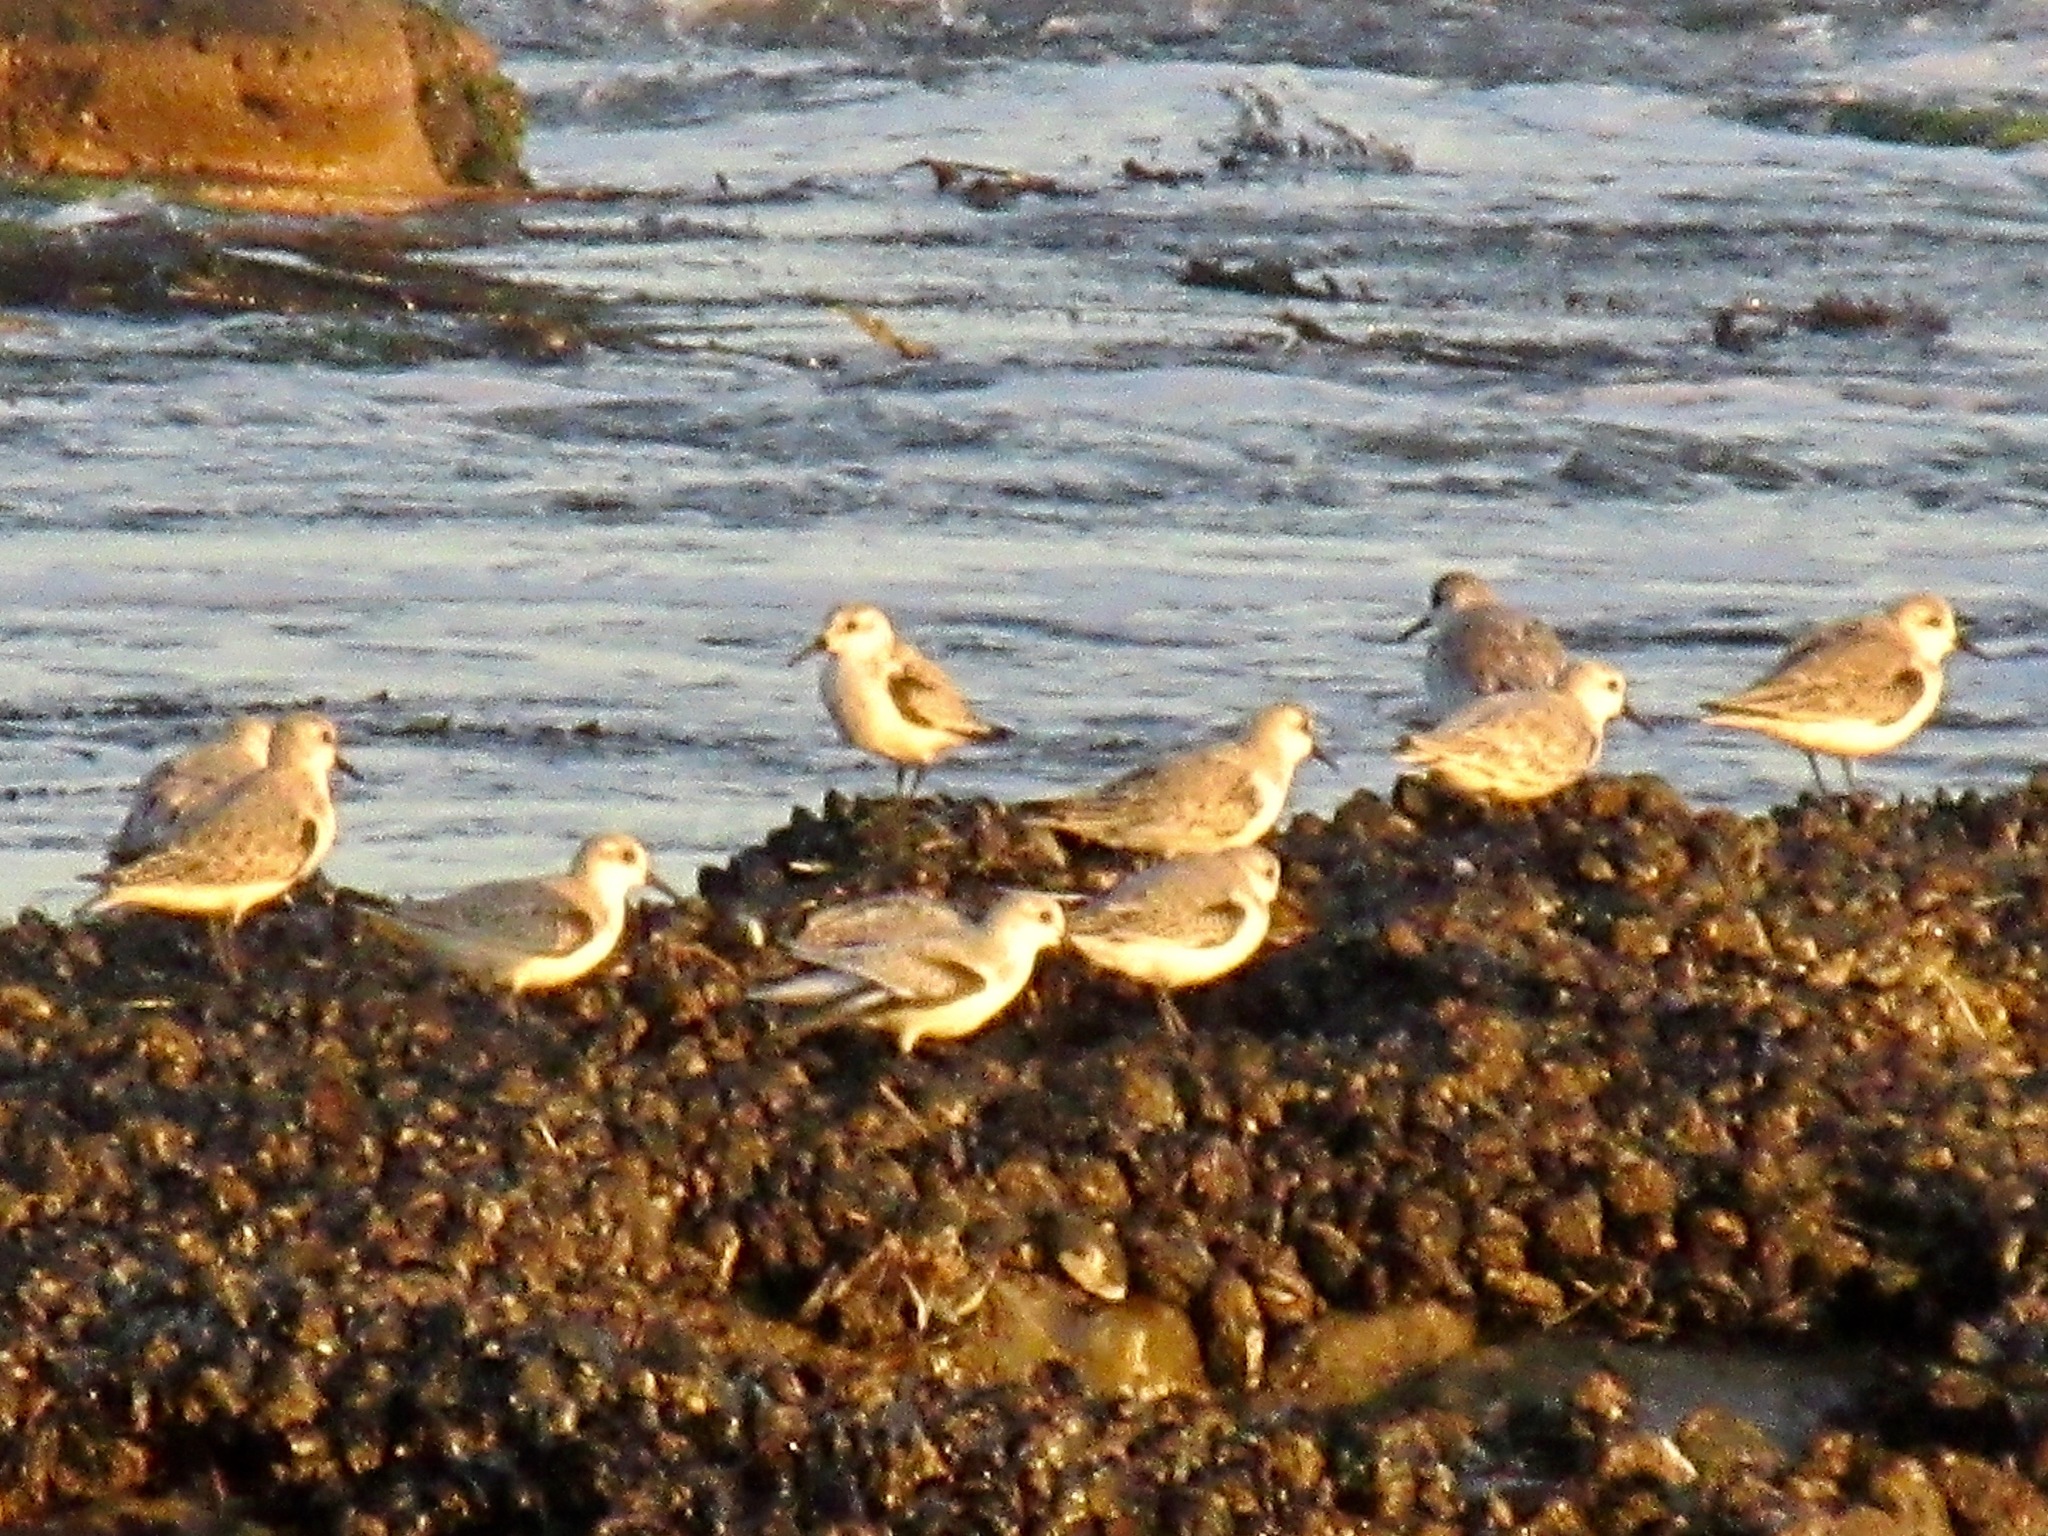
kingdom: Animalia
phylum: Chordata
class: Aves
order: Charadriiformes
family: Scolopacidae
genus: Calidris
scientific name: Calidris alba
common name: Sanderling
